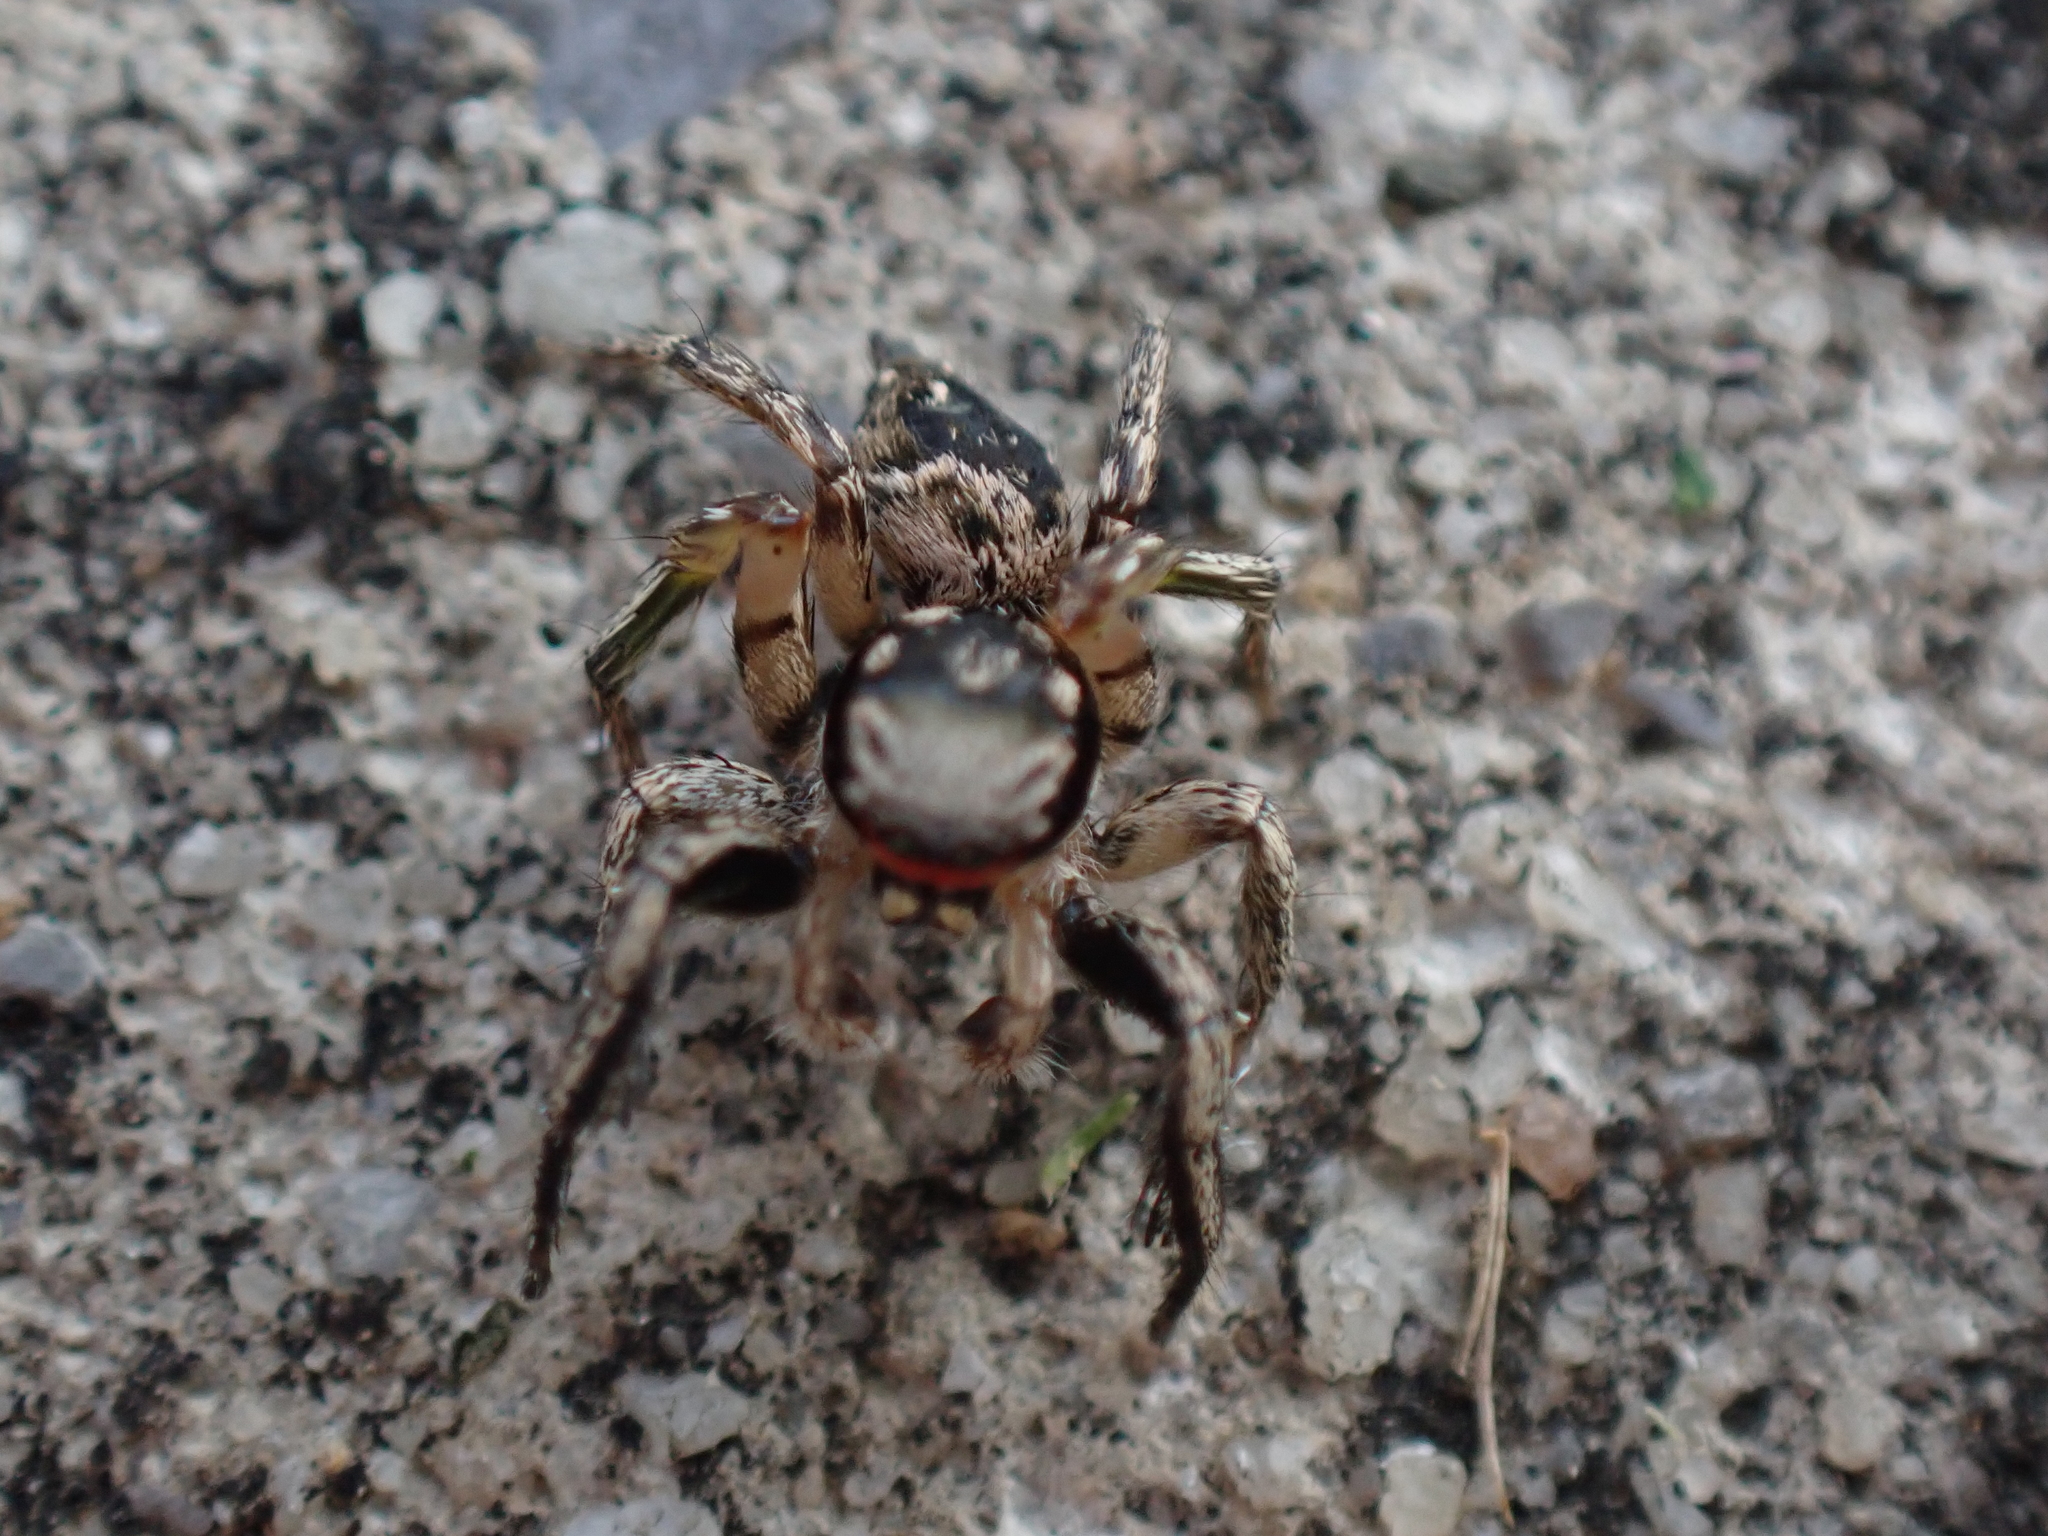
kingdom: Animalia
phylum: Arthropoda
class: Arachnida
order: Araneae
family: Salticidae
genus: Habronattus
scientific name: Habronattus coecatus
